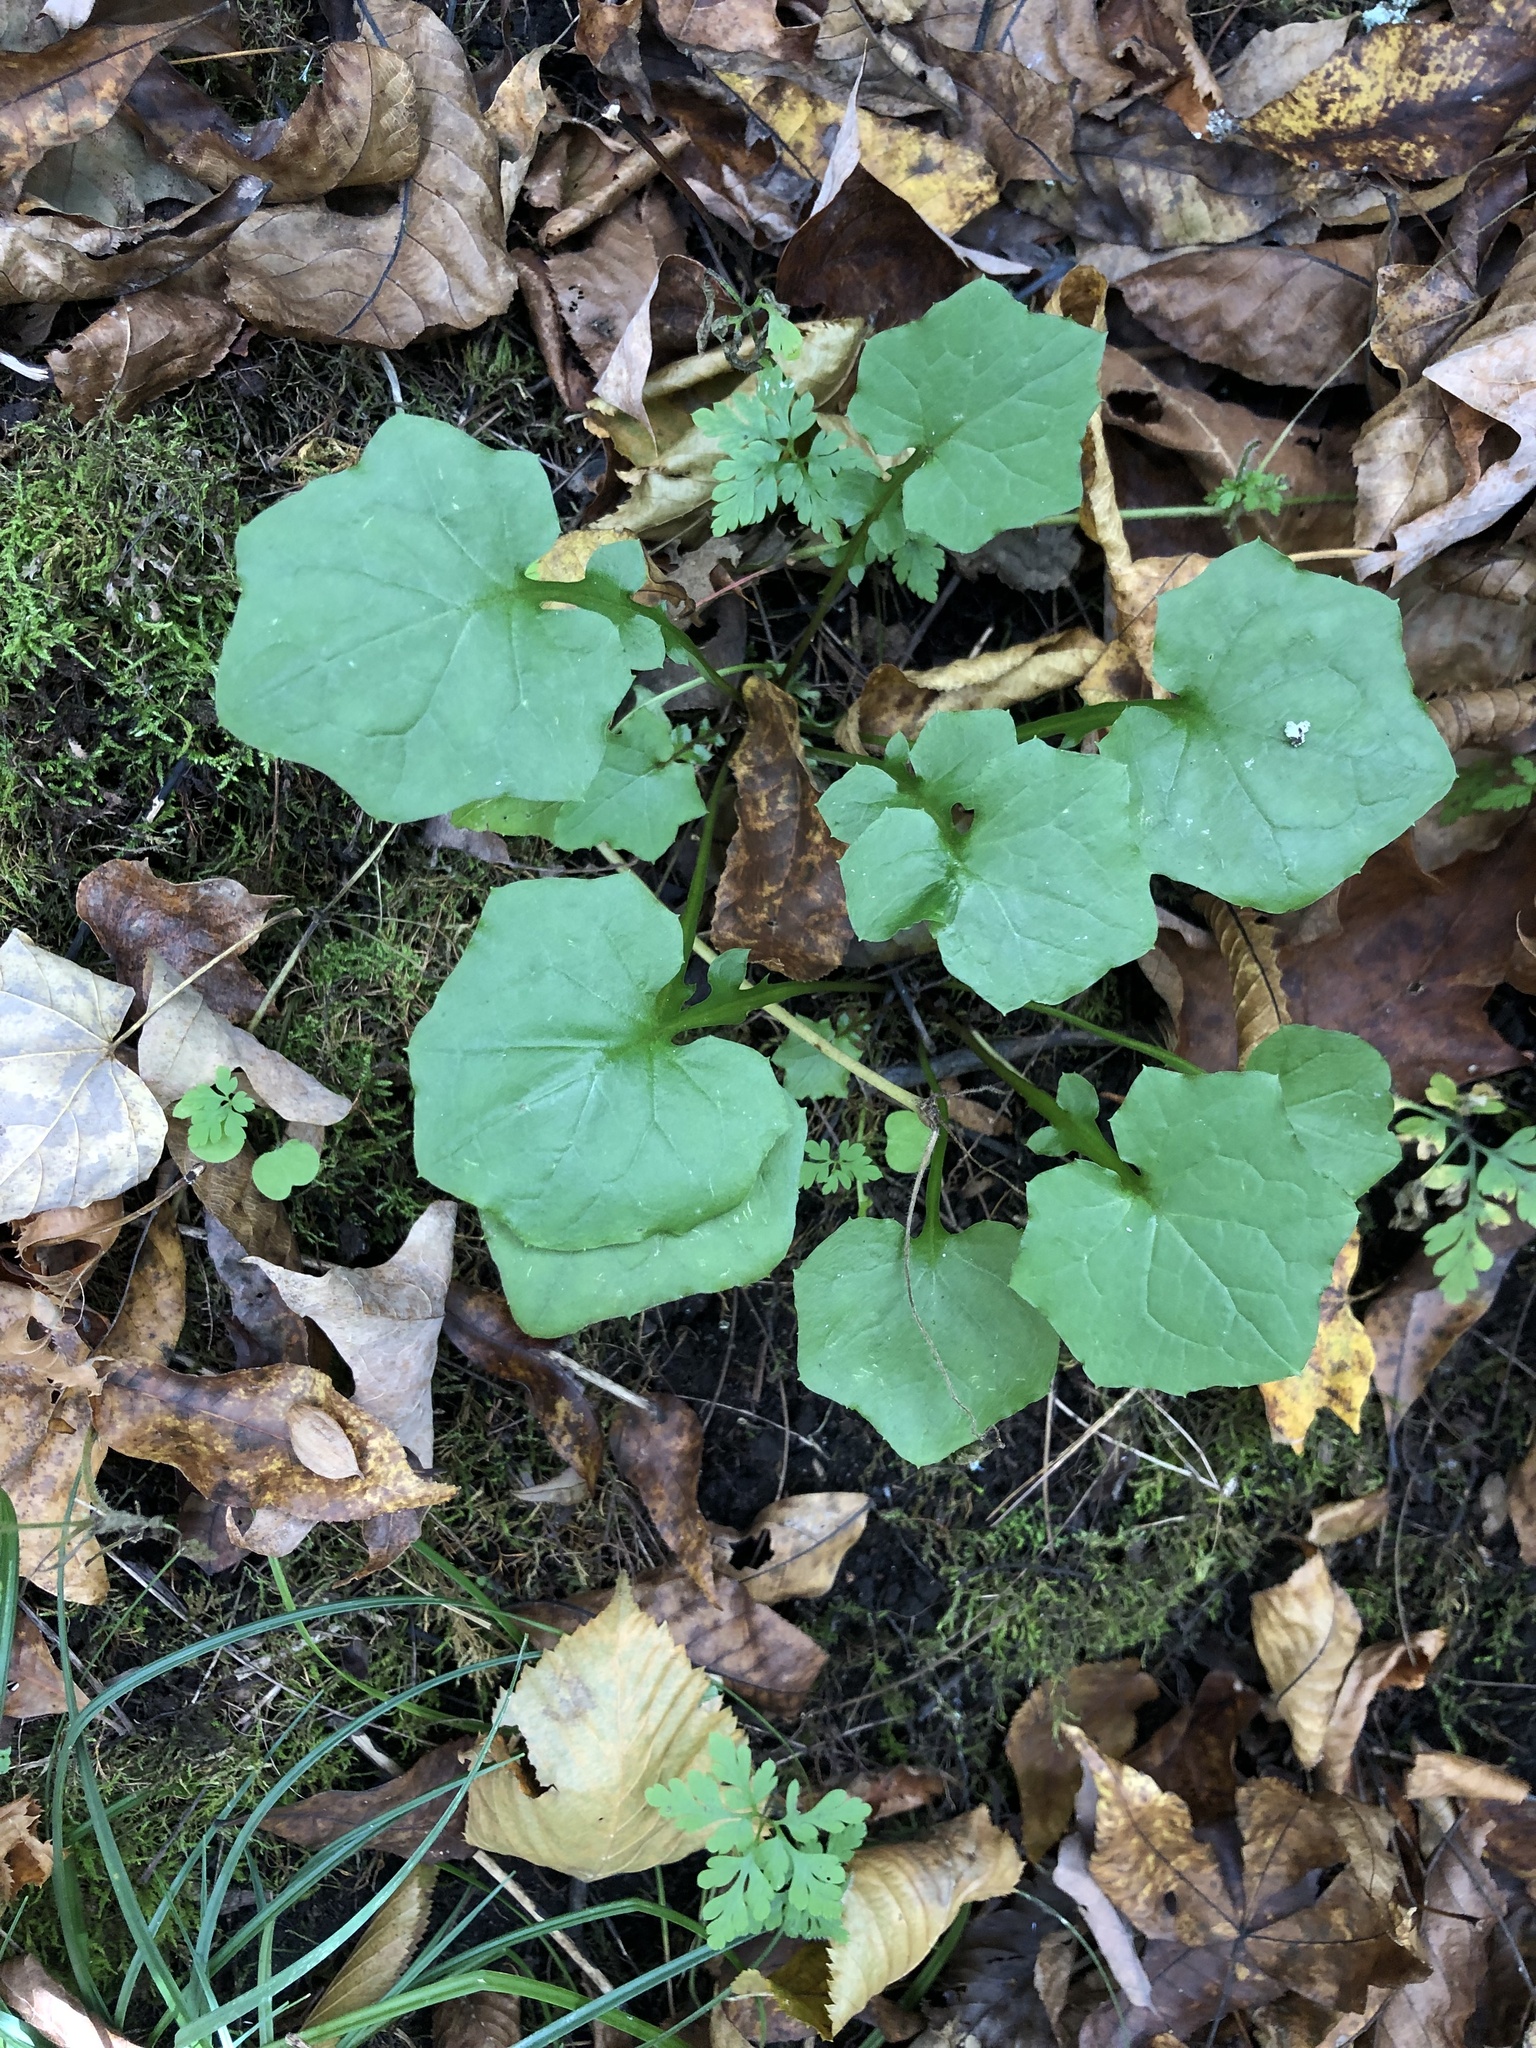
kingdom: Plantae
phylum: Tracheophyta
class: Magnoliopsida
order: Asterales
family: Asteraceae
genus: Mycelis
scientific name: Mycelis muralis
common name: Wall lettuce
